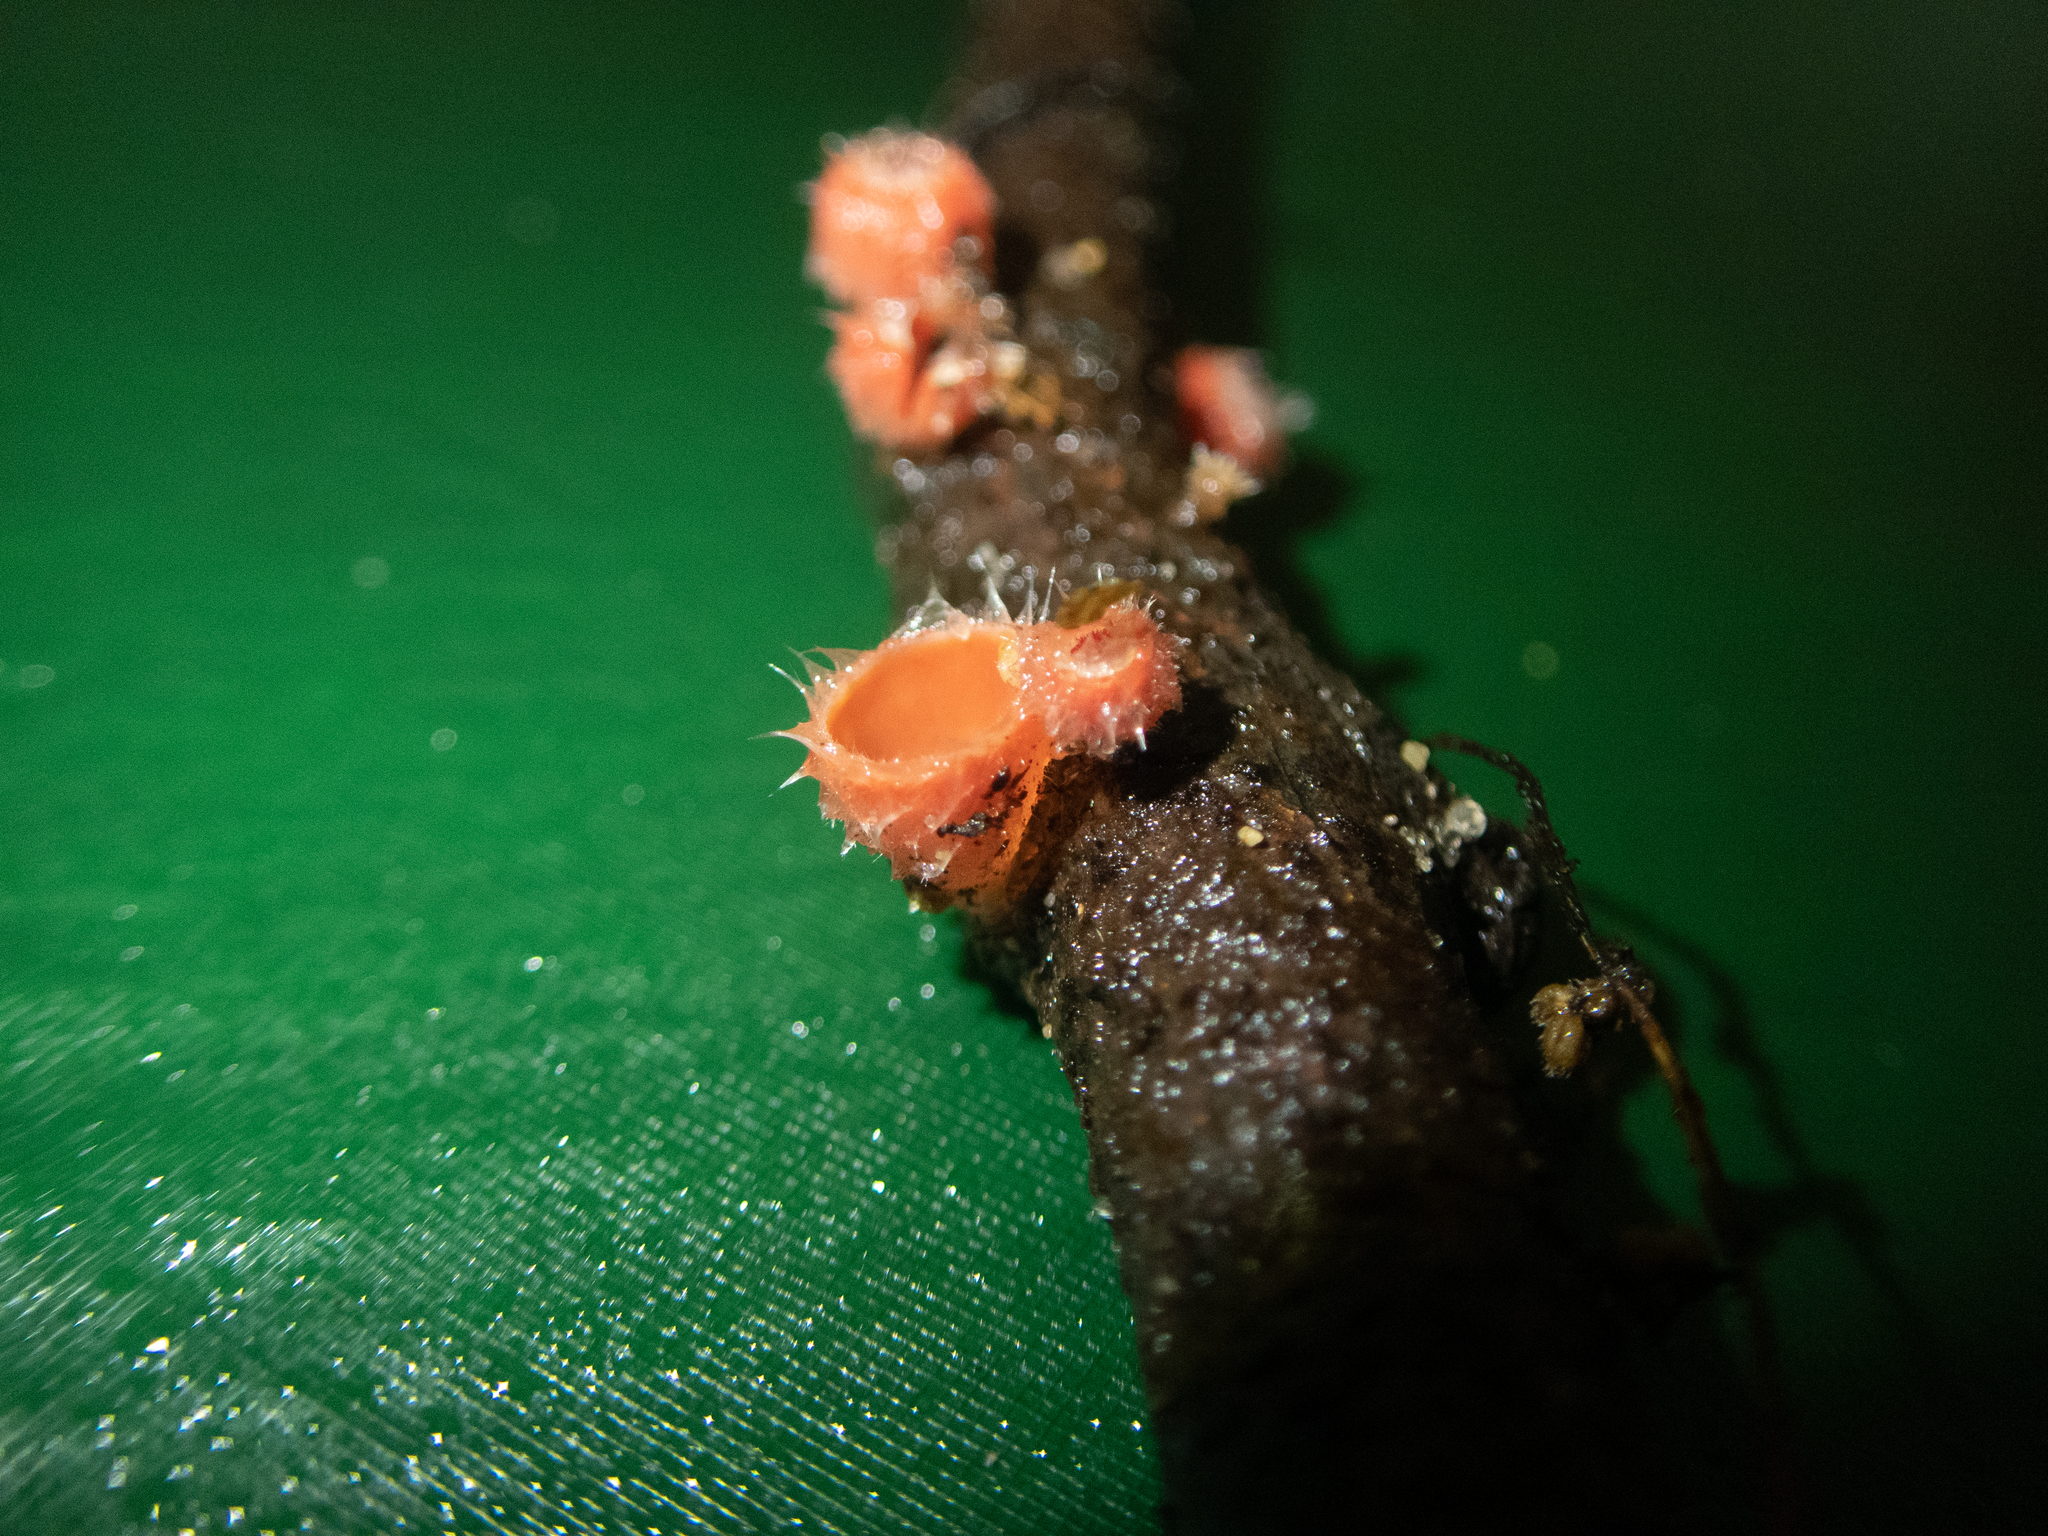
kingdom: Fungi
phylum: Ascomycota
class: Pezizomycetes
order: Pezizales
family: Sarcoscyphaceae
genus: Microstoma
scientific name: Microstoma floccosum
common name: Pink fringed faery cup
